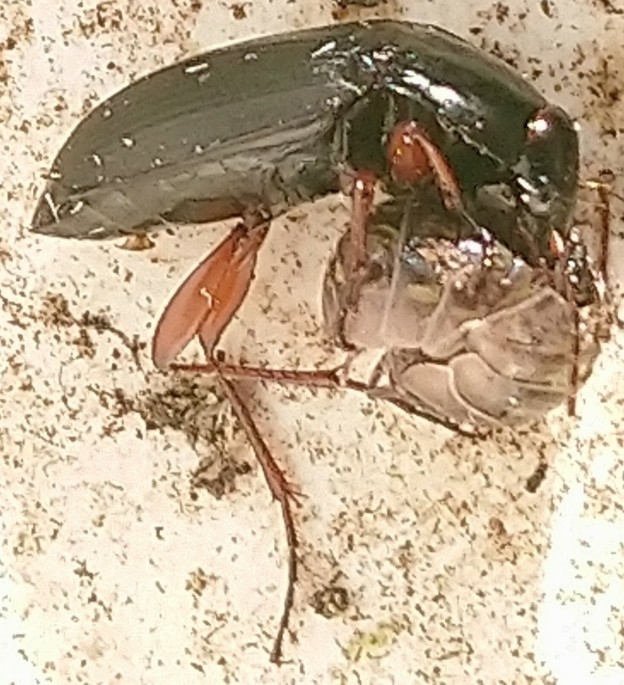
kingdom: Animalia
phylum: Arthropoda
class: Insecta
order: Coleoptera
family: Carabidae
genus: Calathus
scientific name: Calathus
